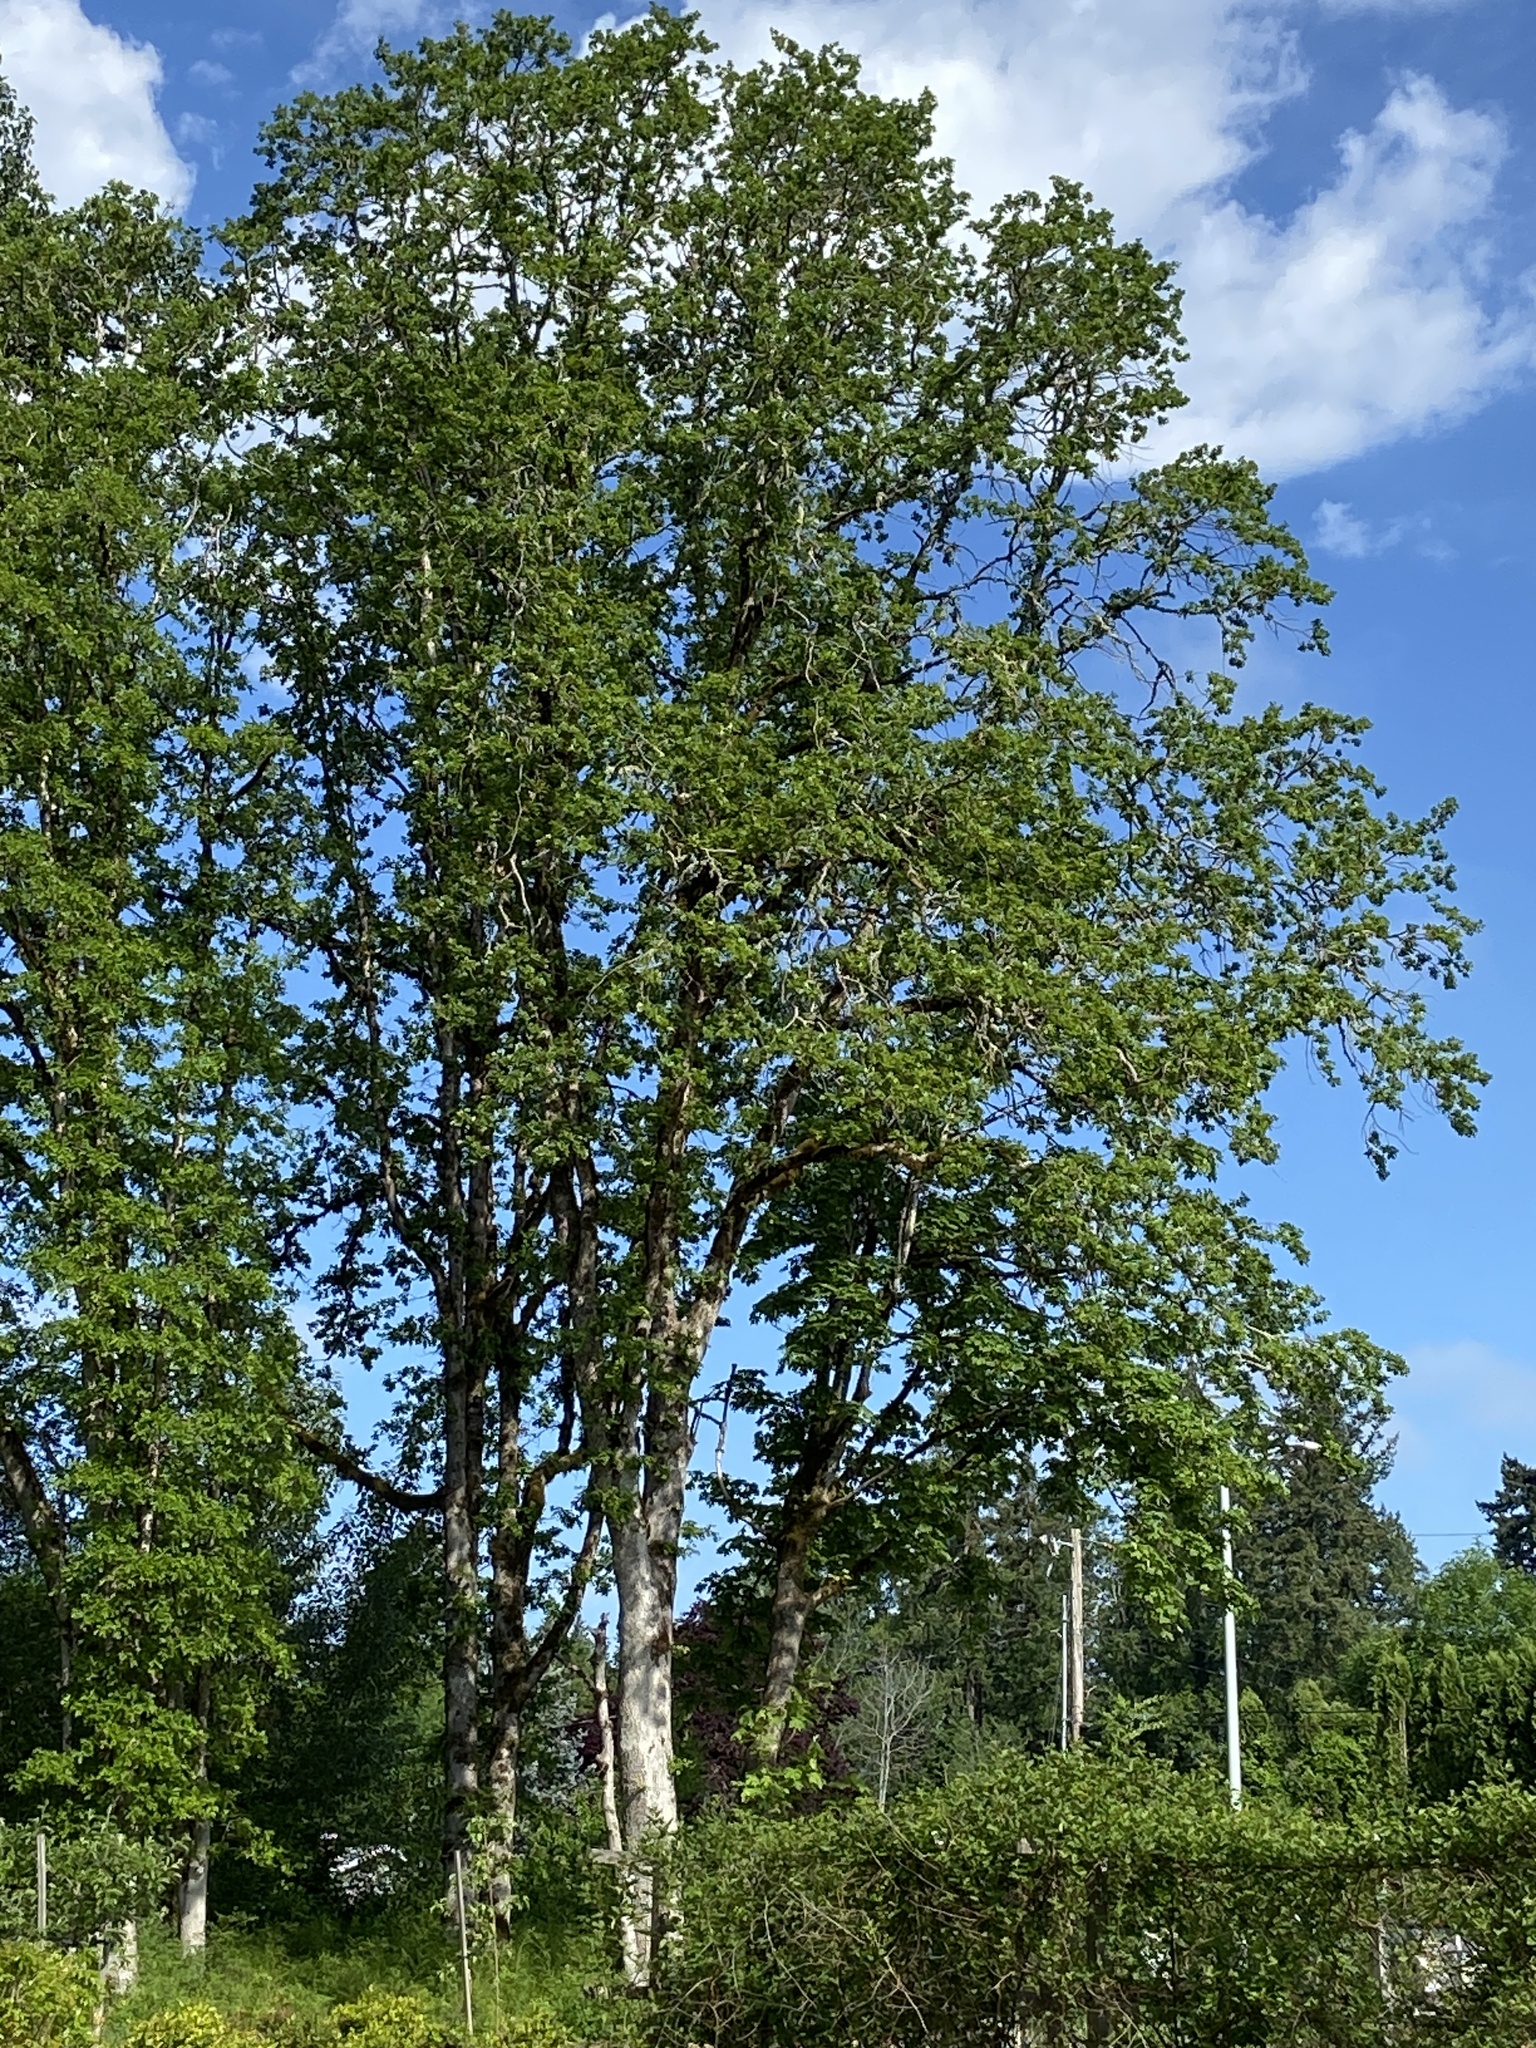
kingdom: Plantae
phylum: Tracheophyta
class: Magnoliopsida
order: Fagales
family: Fagaceae
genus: Quercus
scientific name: Quercus garryana
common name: Garry oak
